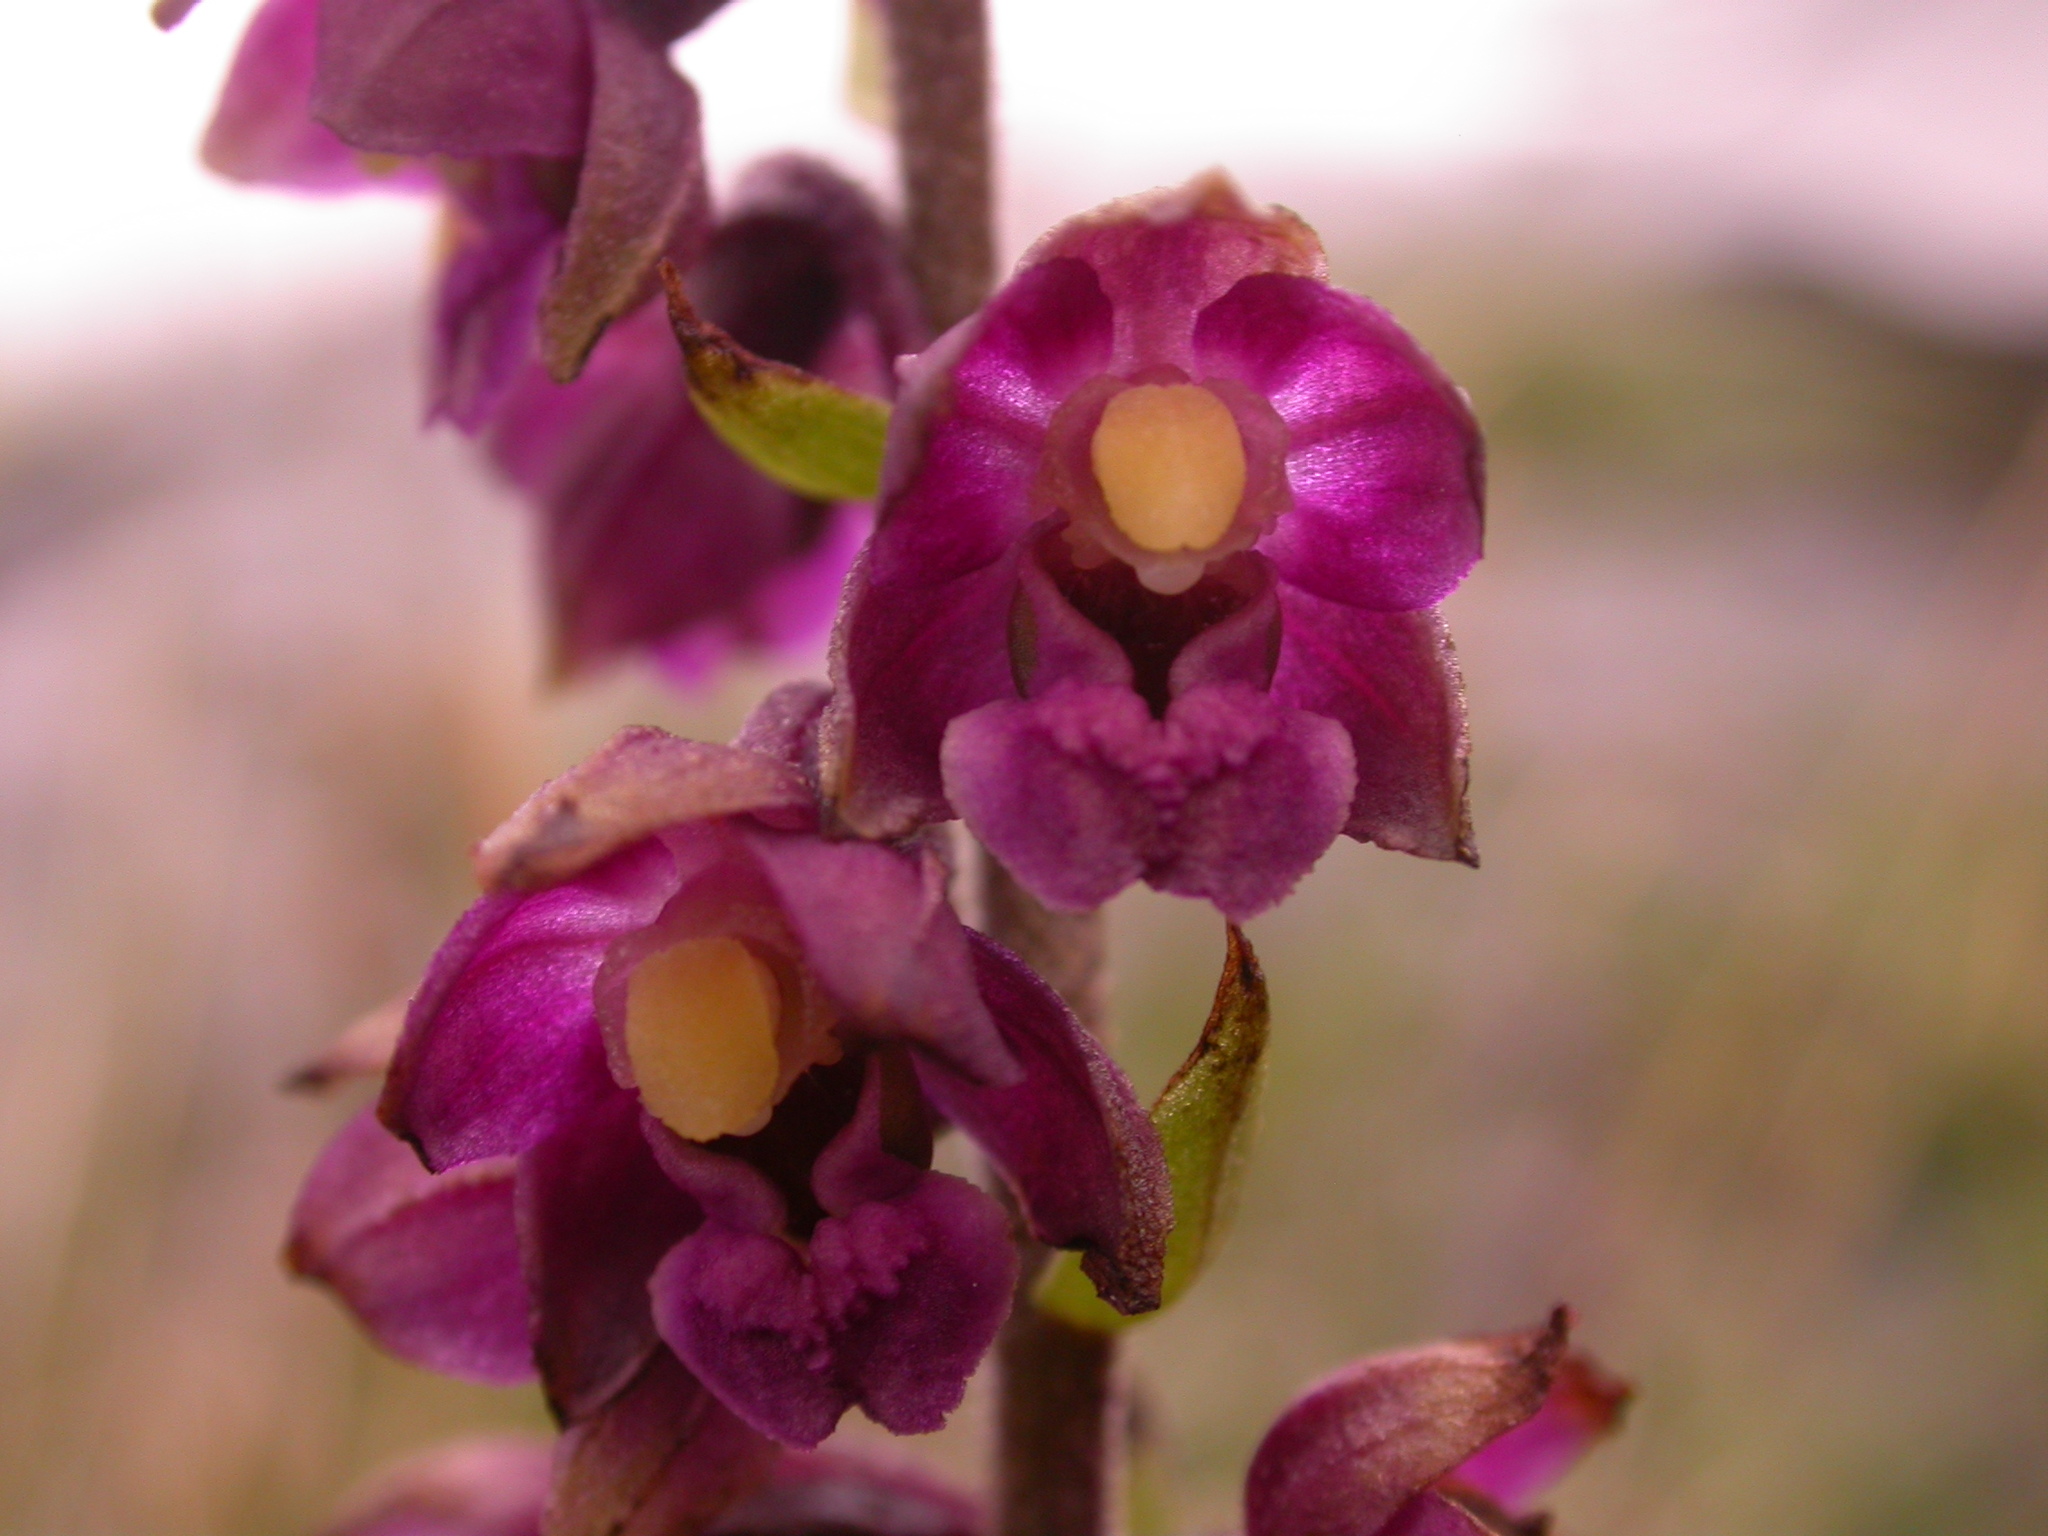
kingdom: Plantae
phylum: Tracheophyta
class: Liliopsida
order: Asparagales
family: Orchidaceae
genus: Epipactis
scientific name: Epipactis atrorubens
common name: Dark-red helleborine
